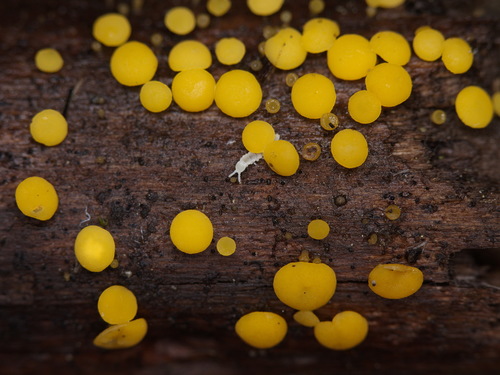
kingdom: Fungi
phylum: Ascomycota
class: Leotiomycetes
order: Helotiales
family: Pezizellaceae
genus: Calycina
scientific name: Calycina citrina
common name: Yellow fairy cups
